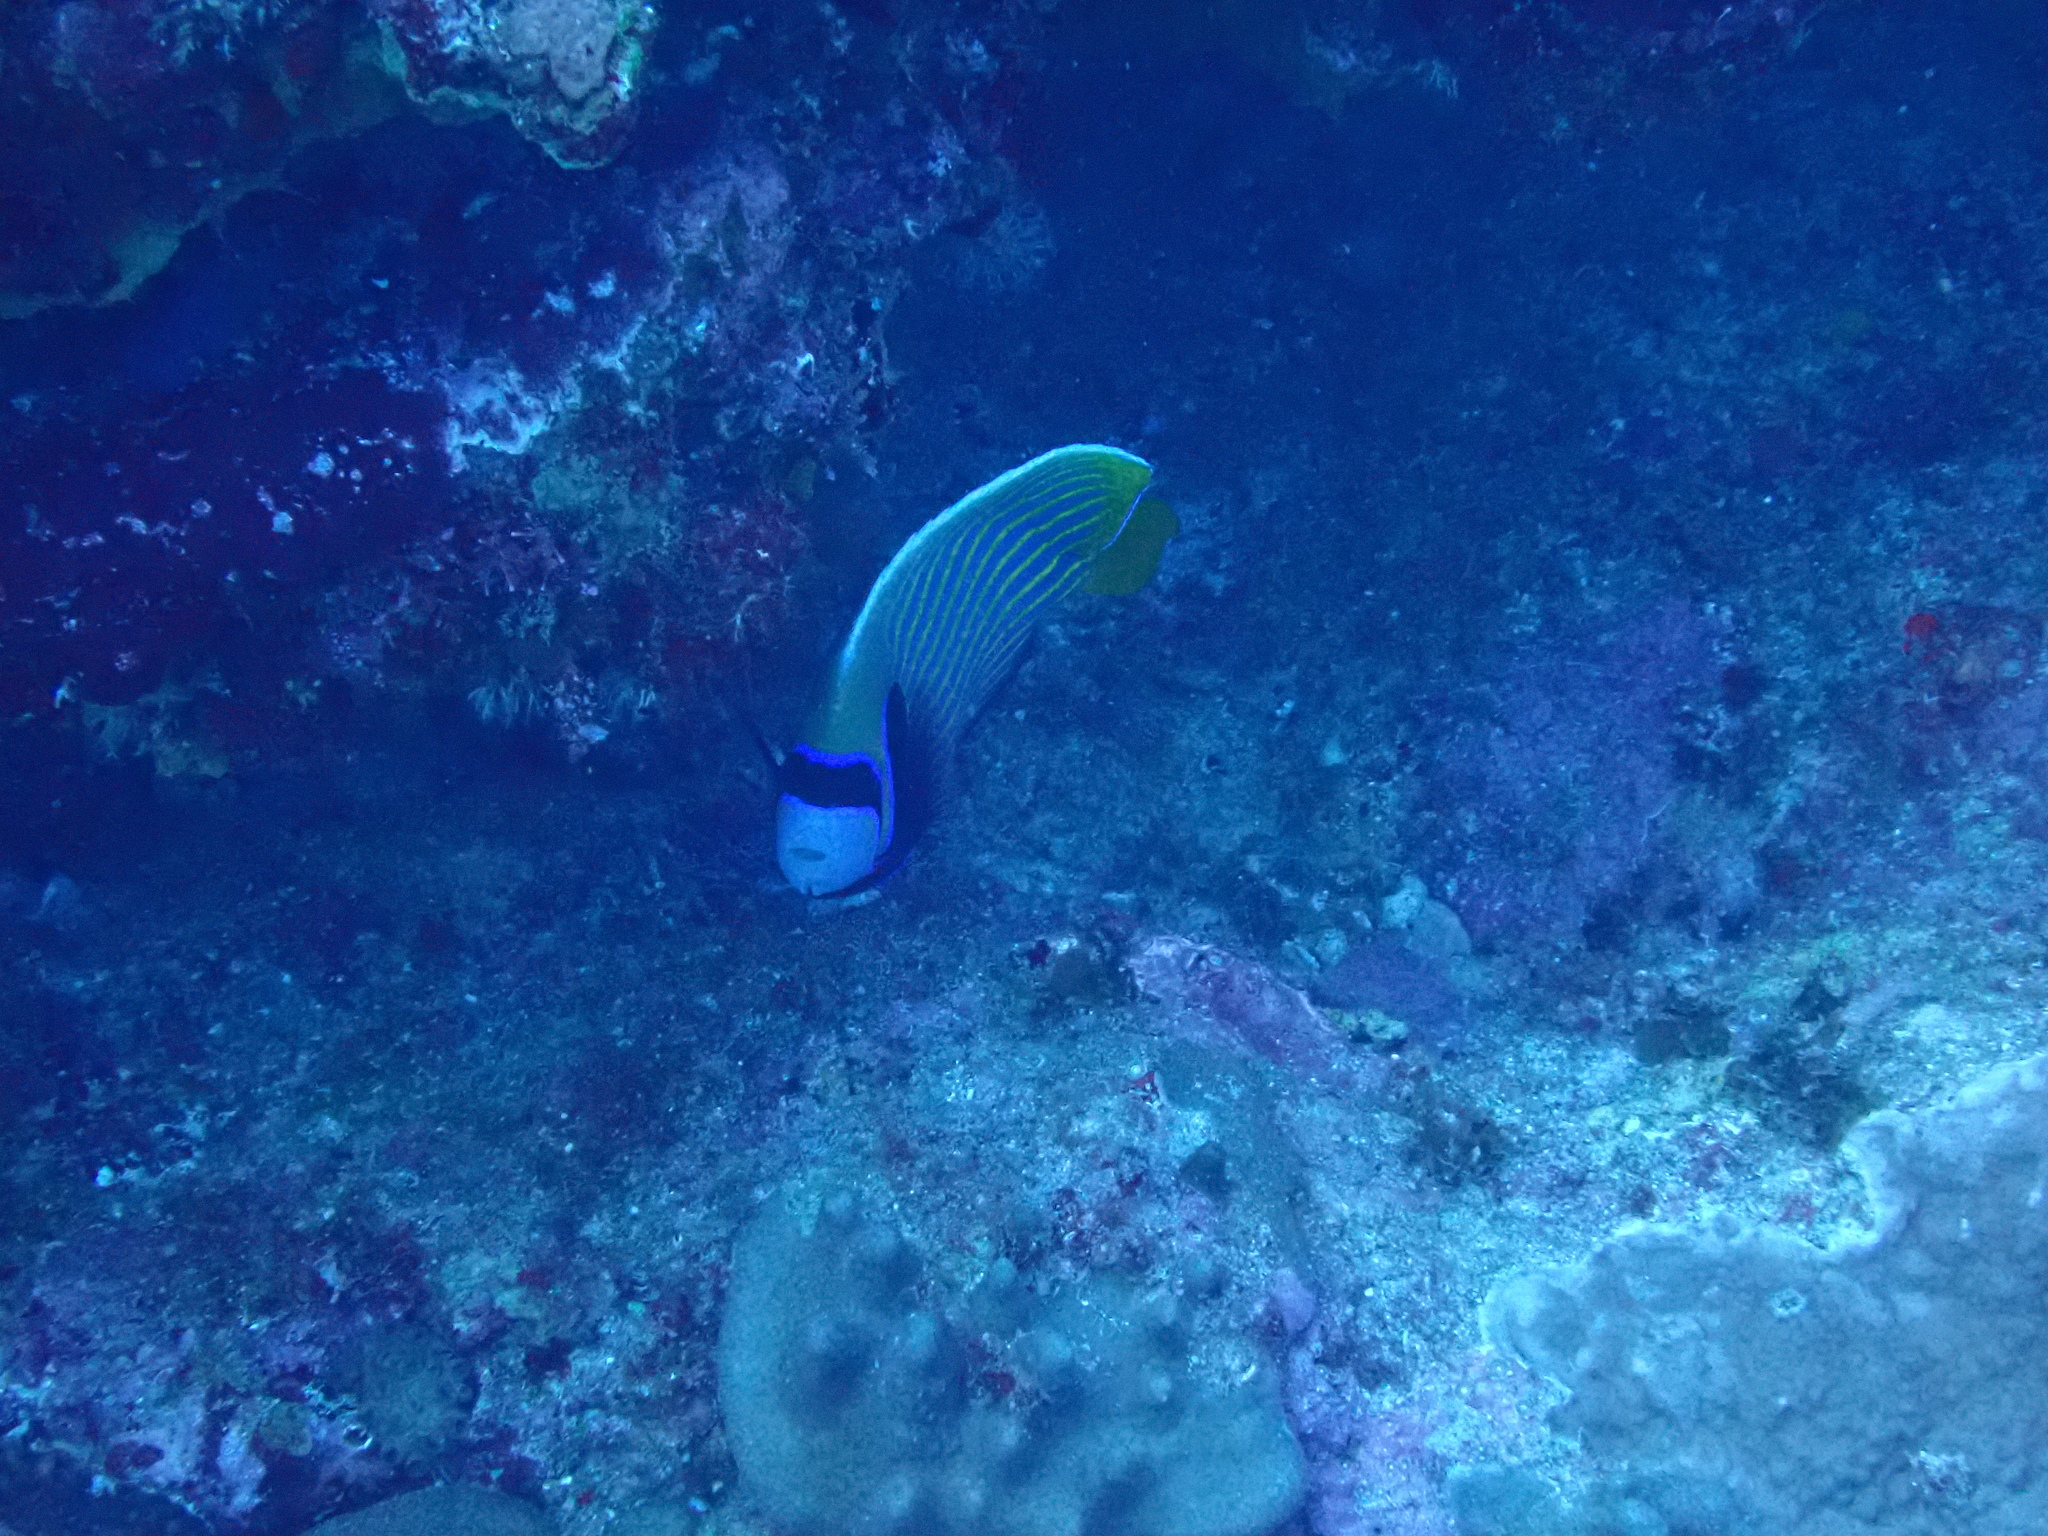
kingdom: Animalia
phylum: Chordata
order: Perciformes
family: Pomacanthidae
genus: Pomacanthus
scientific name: Pomacanthus imperator
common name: Emperor angelfish
